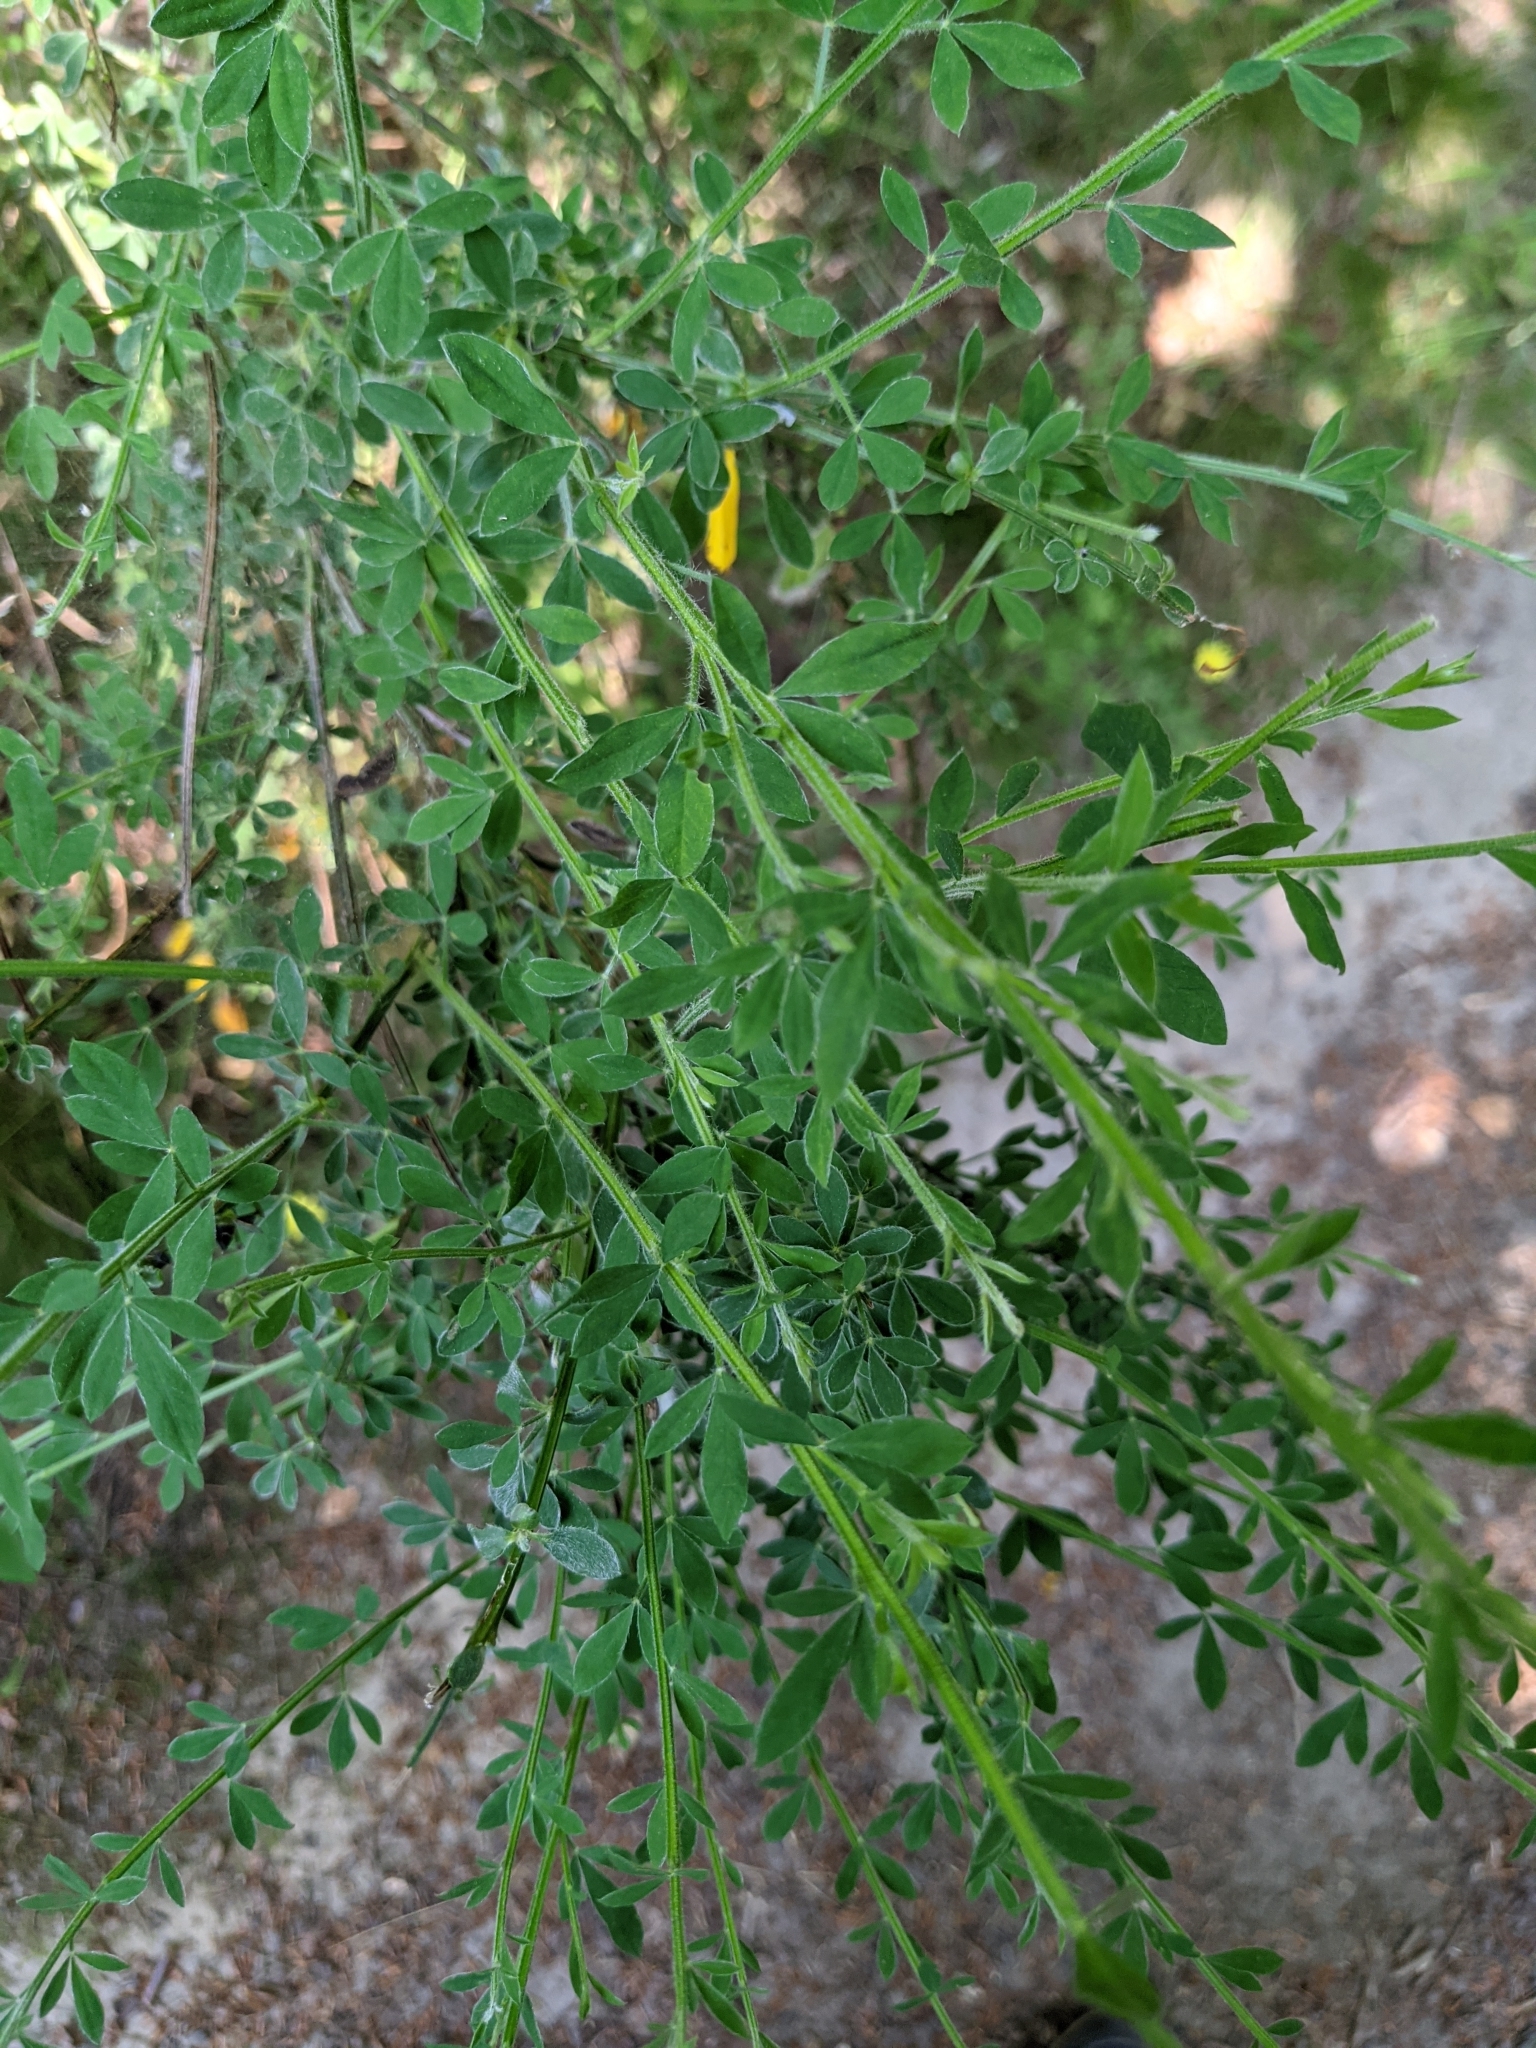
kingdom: Plantae
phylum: Tracheophyta
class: Magnoliopsida
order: Fabales
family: Fabaceae
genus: Cytisus
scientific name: Cytisus scoparius
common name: Scotch broom
